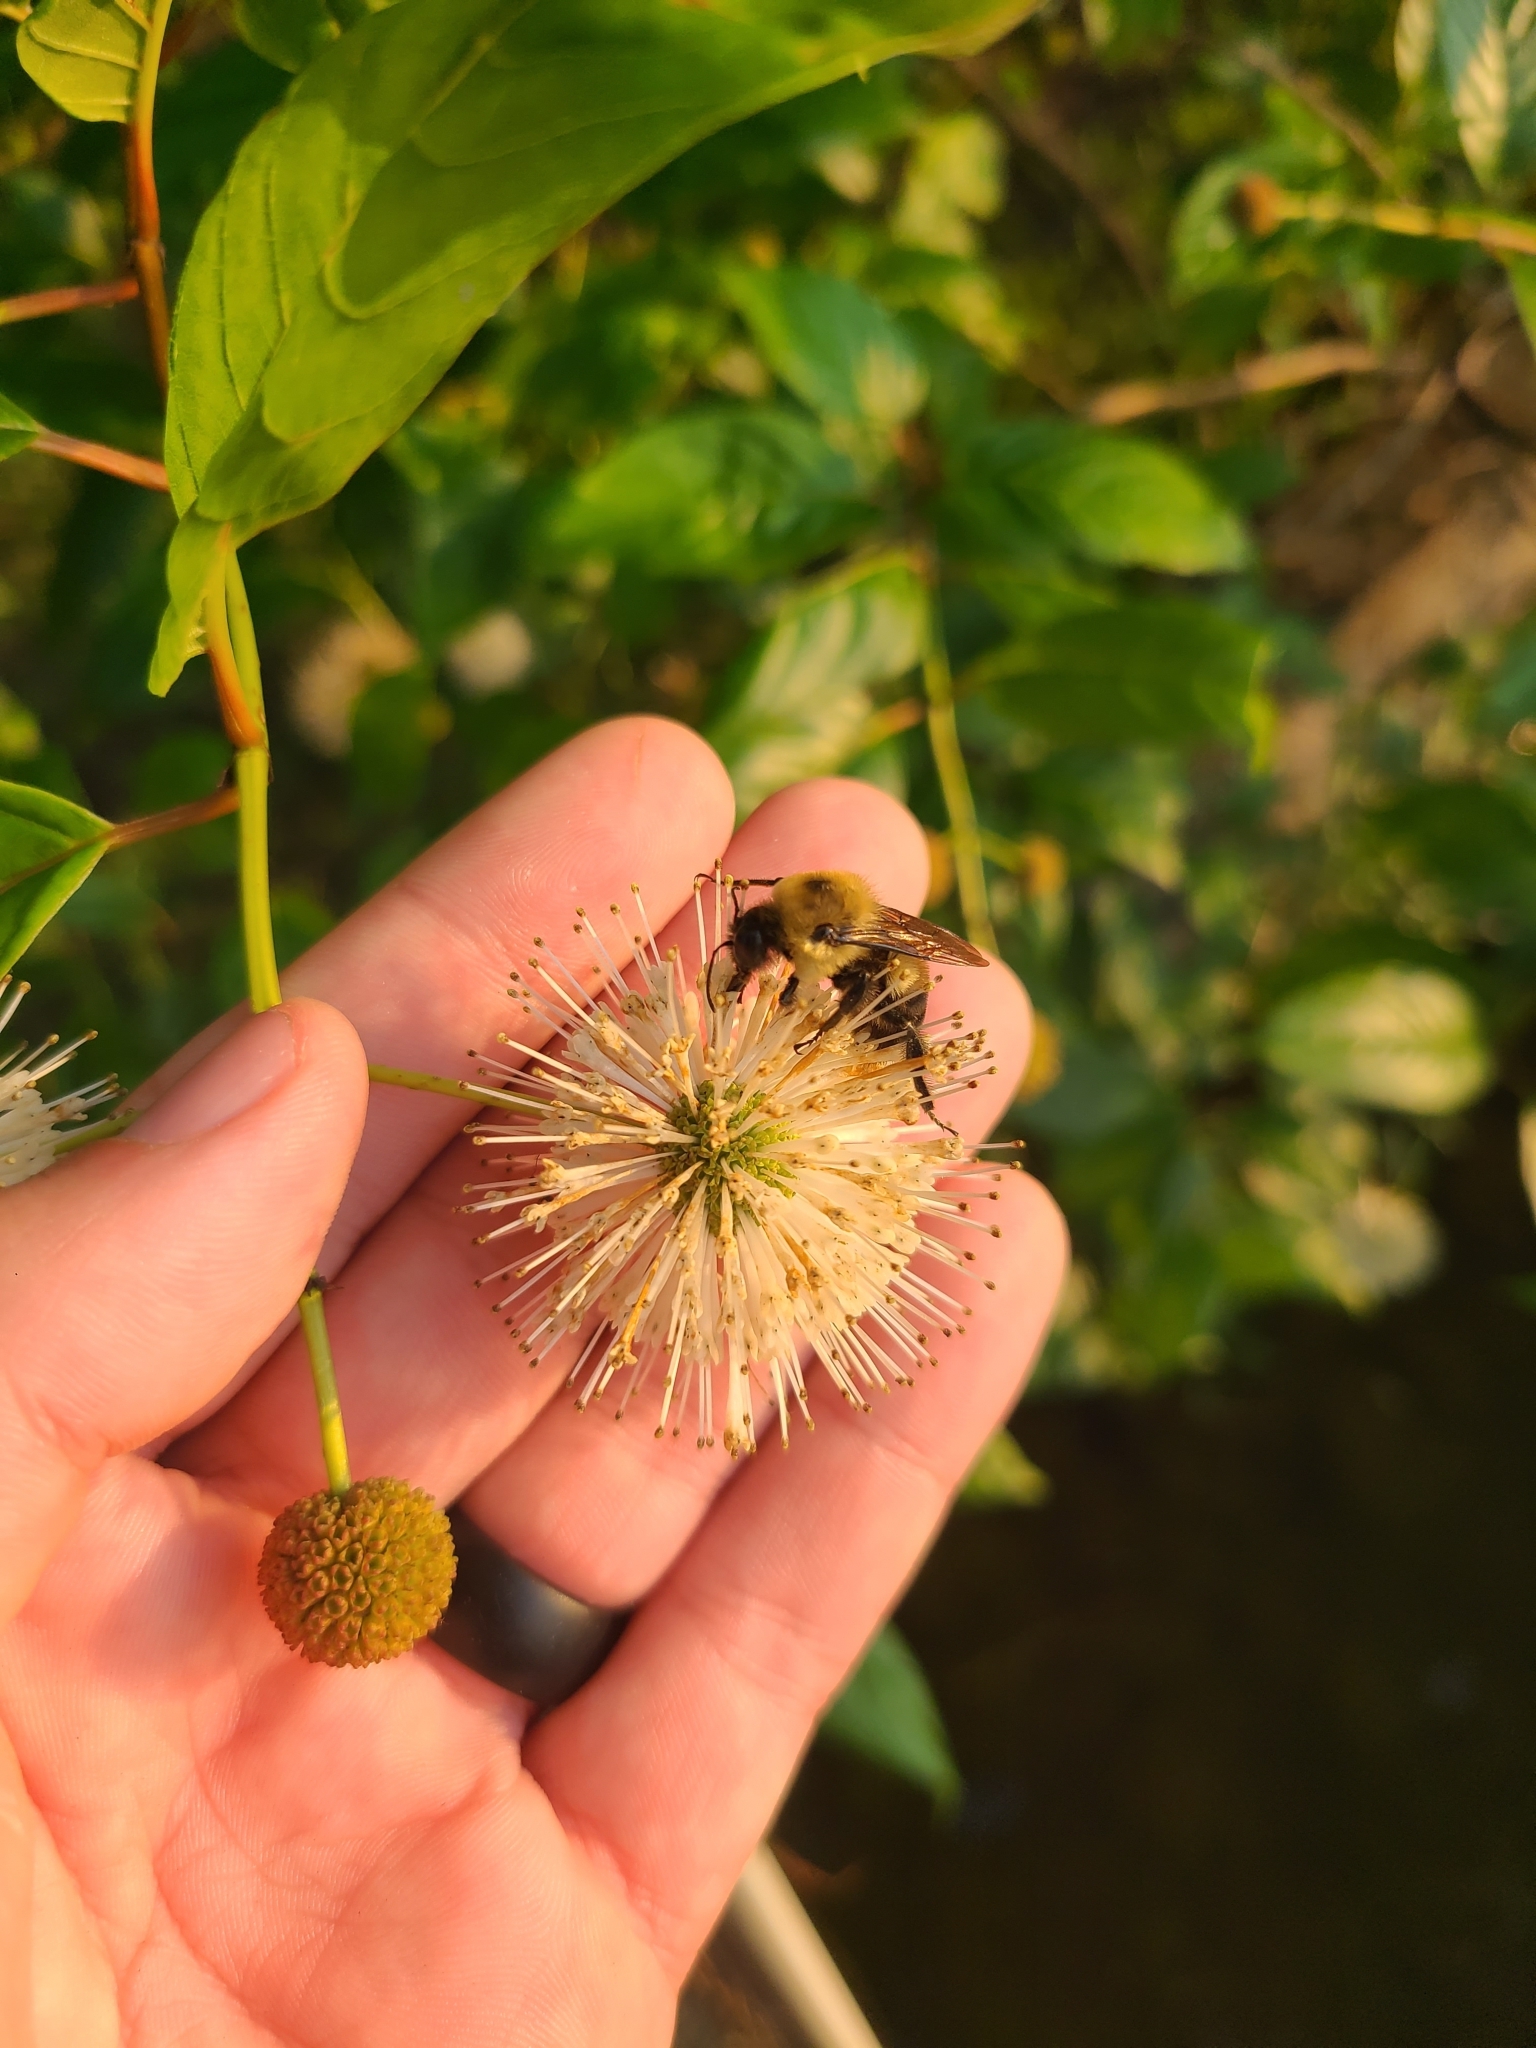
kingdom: Plantae
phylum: Tracheophyta
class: Magnoliopsida
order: Gentianales
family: Rubiaceae
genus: Cephalanthus
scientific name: Cephalanthus occidentalis
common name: Button-willow
